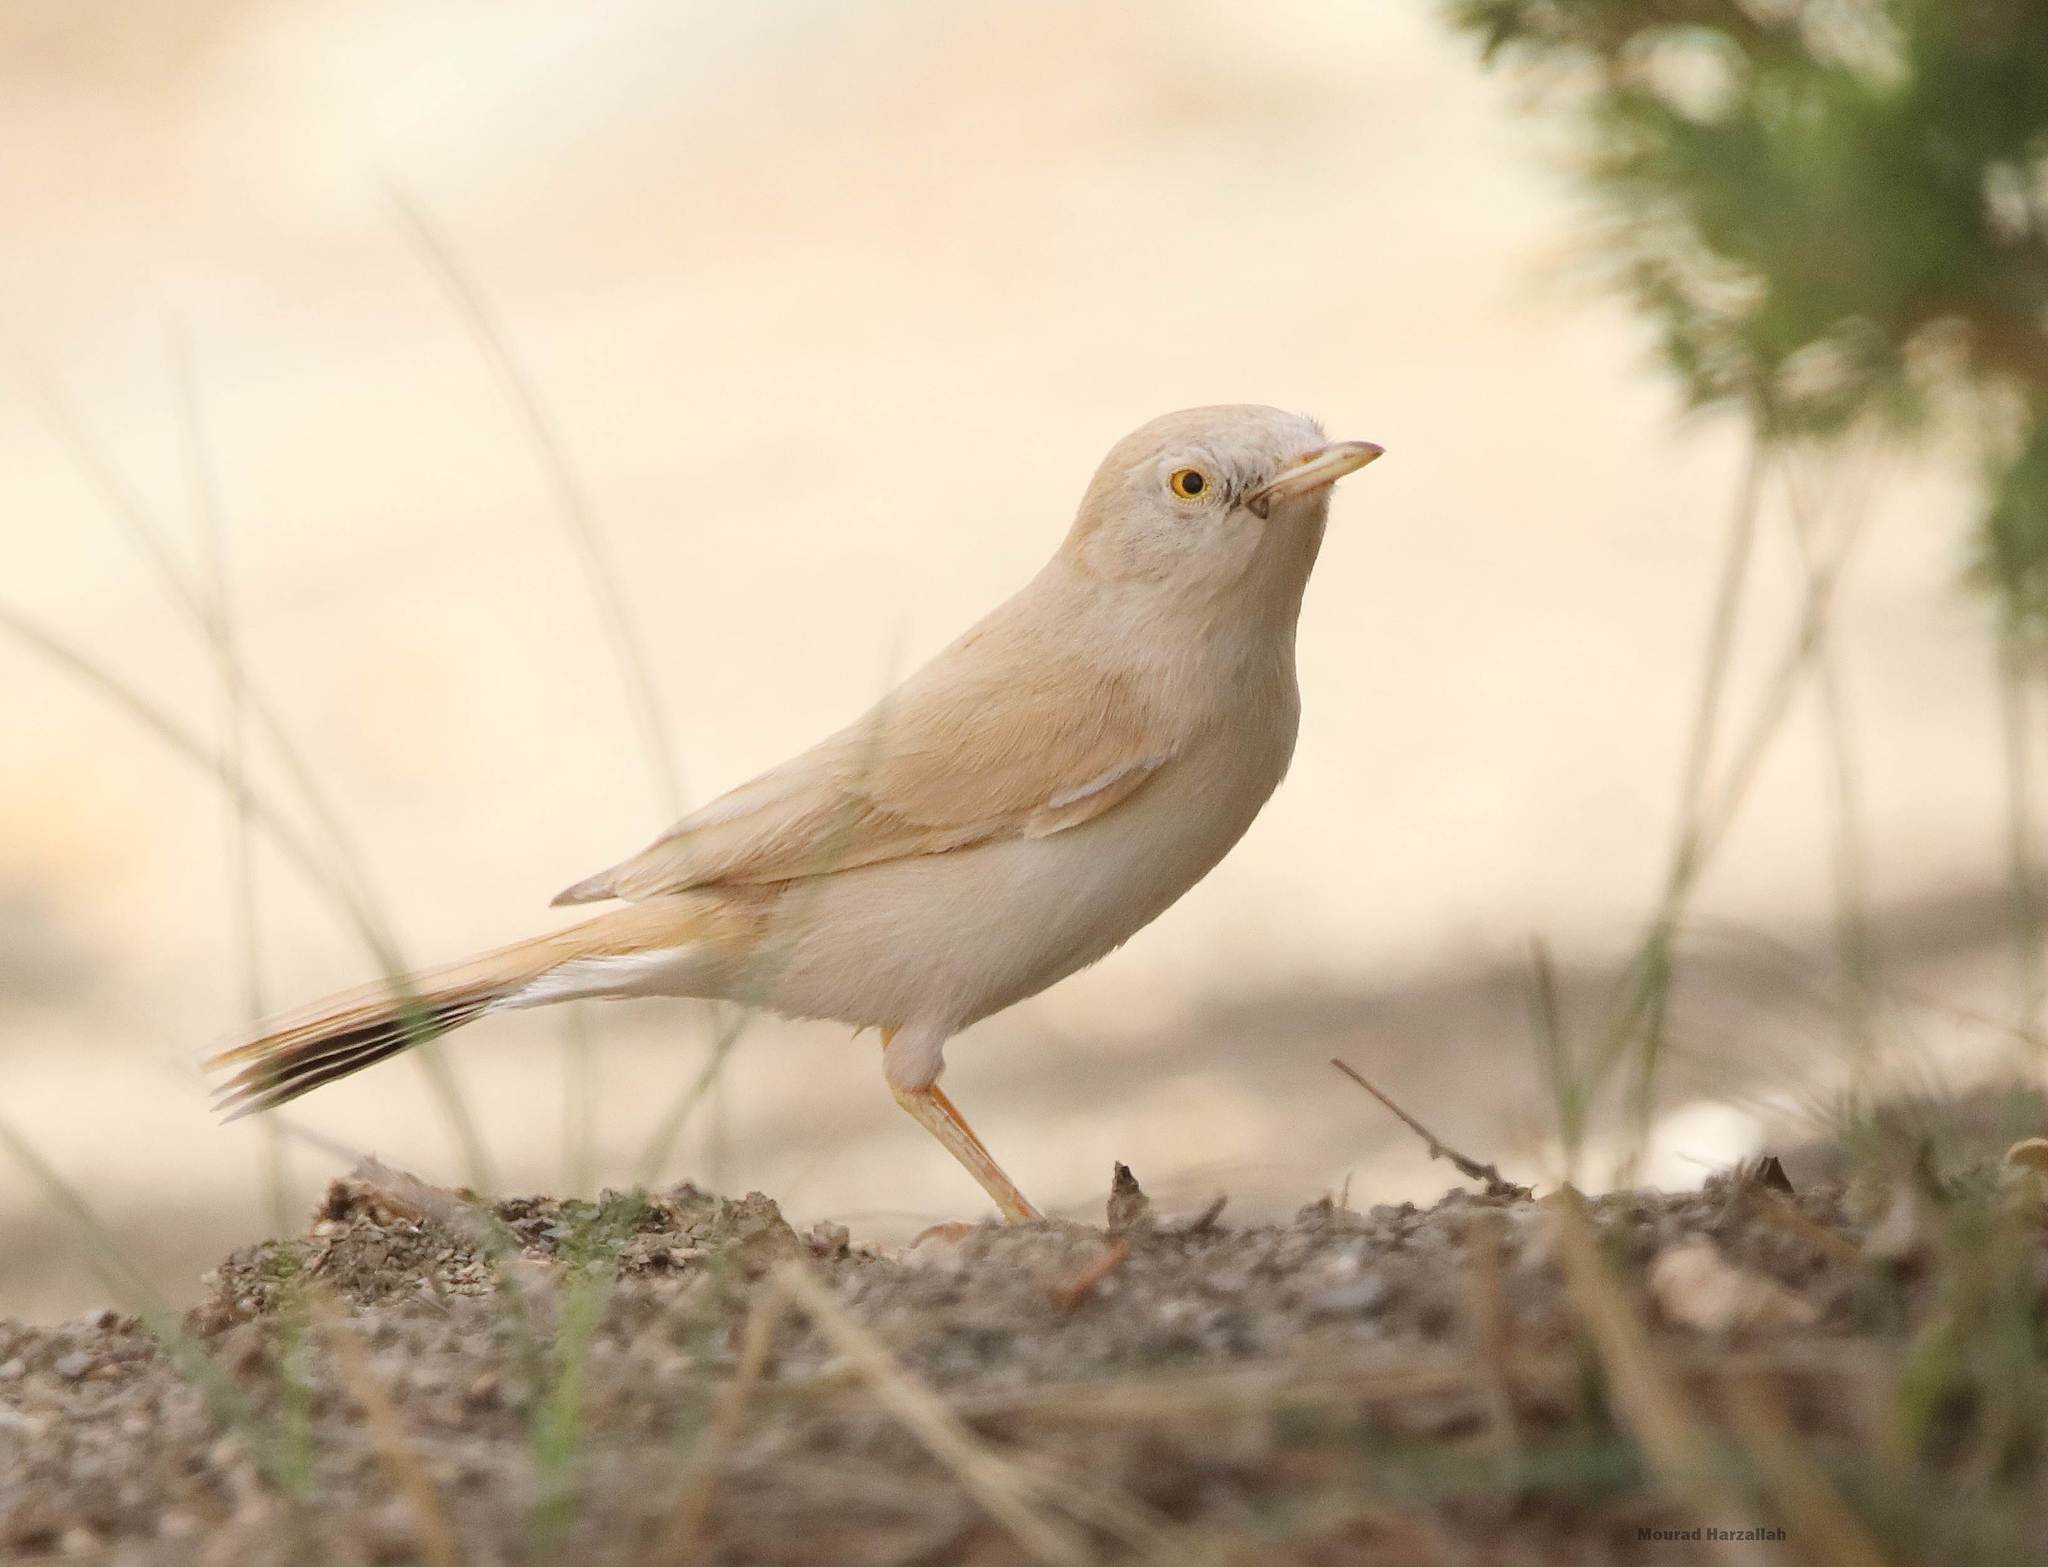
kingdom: Animalia
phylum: Chordata
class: Aves
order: Passeriformes
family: Sylviidae
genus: Sylvia
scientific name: Sylvia deserti
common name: African desert warbler
